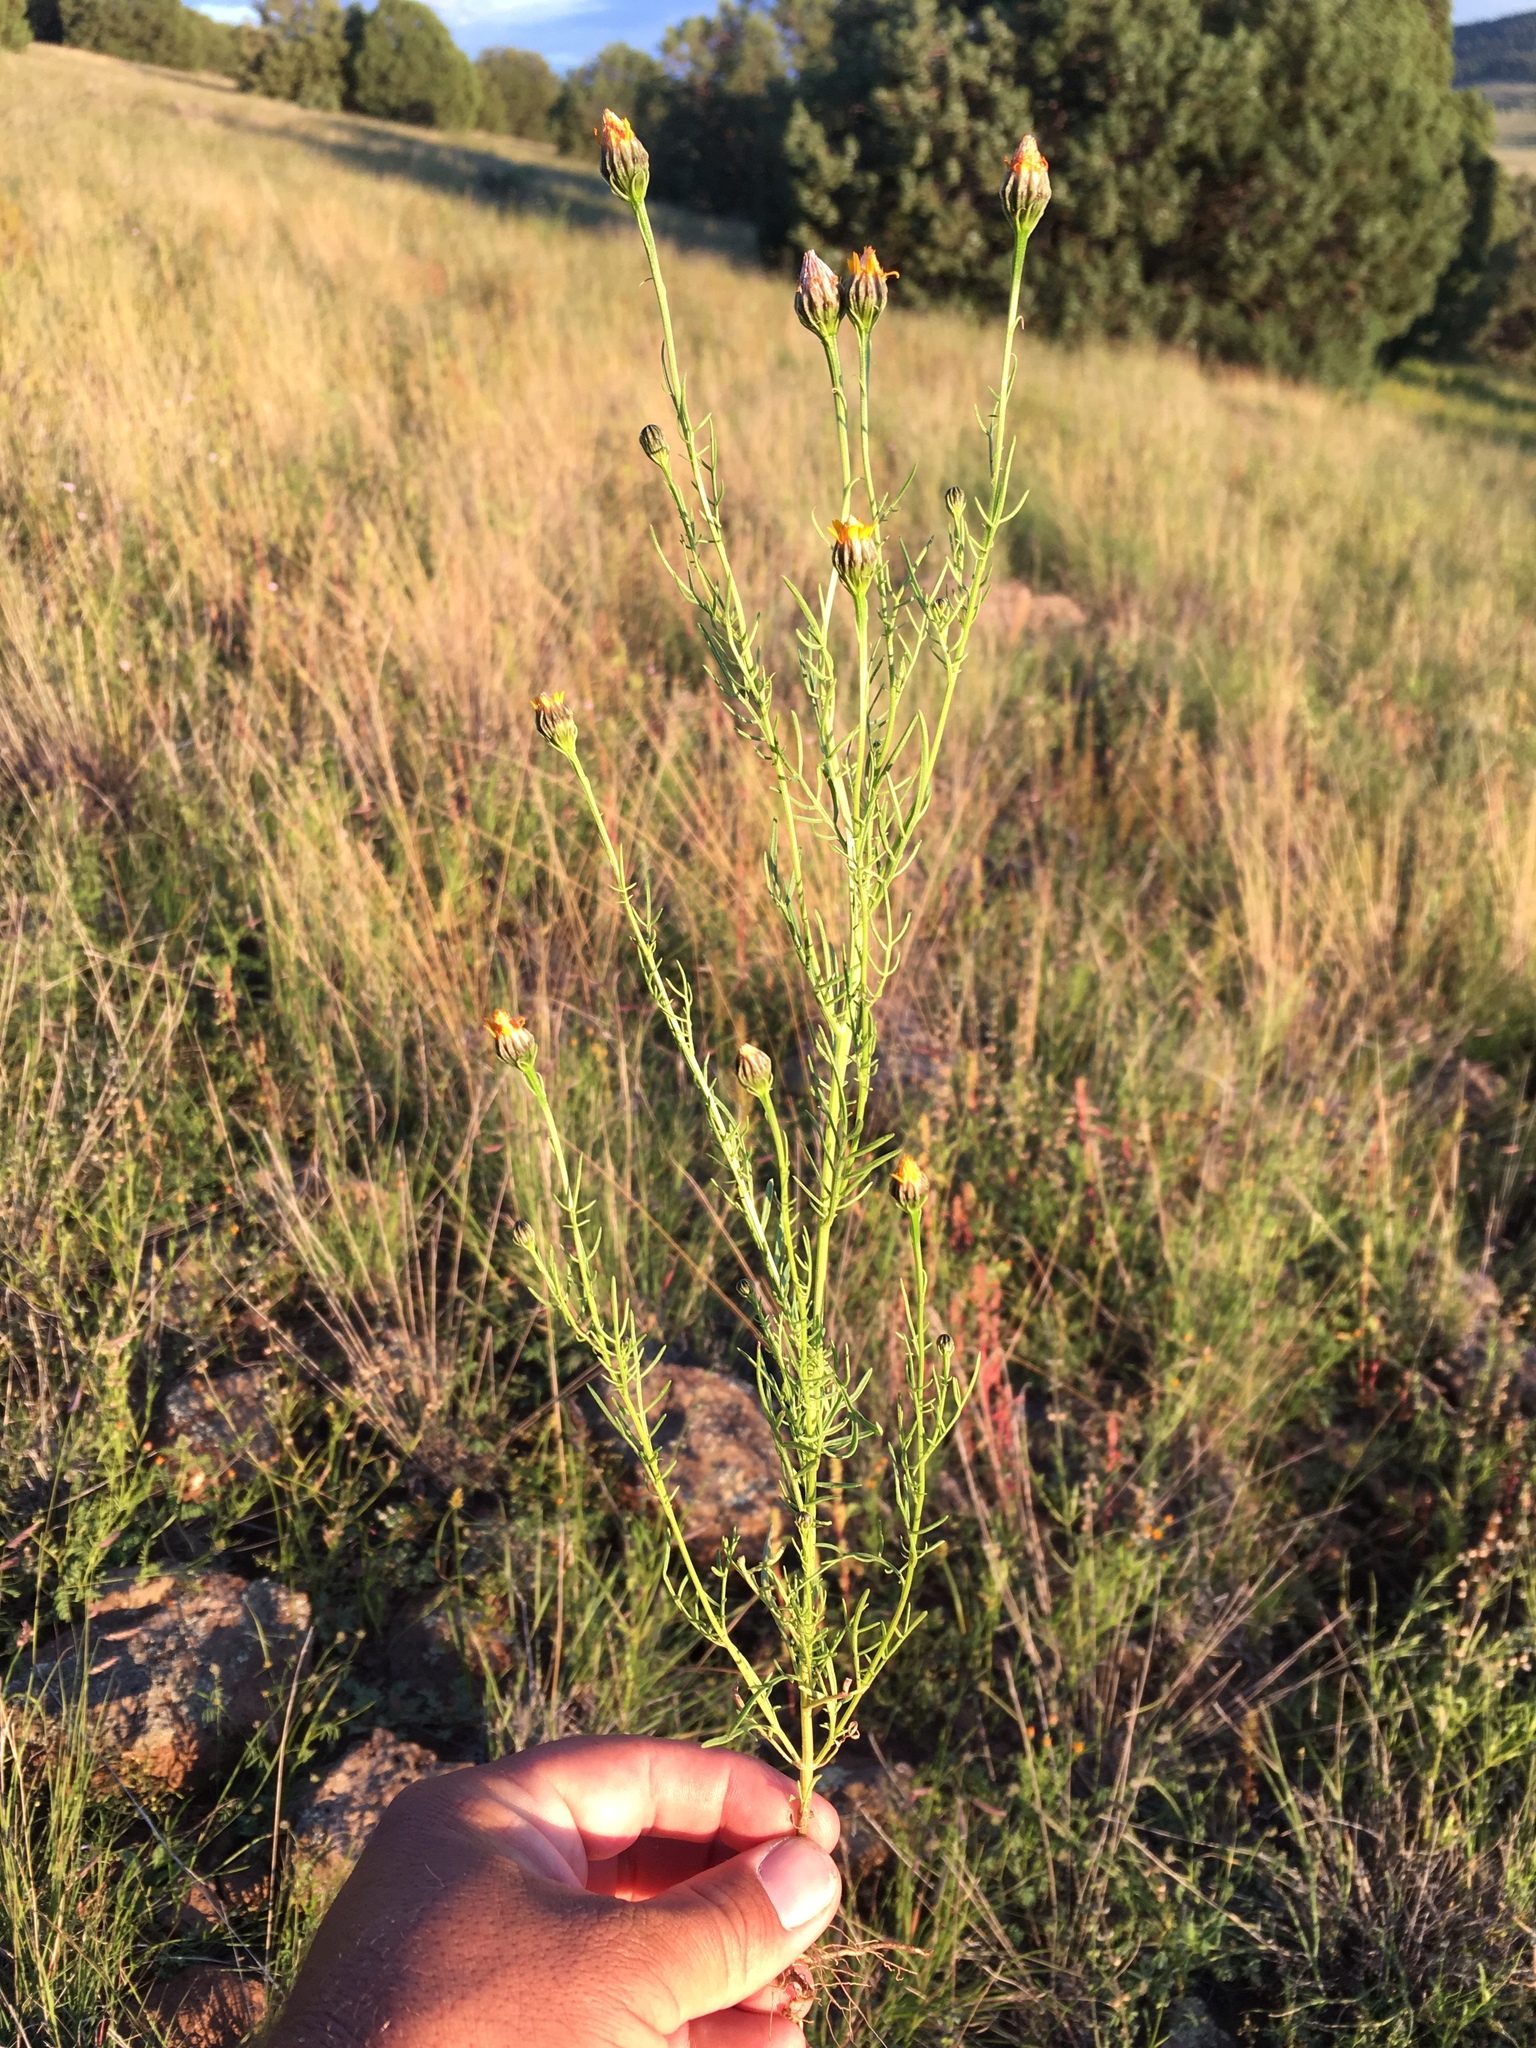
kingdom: Plantae
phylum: Tracheophyta
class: Magnoliopsida
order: Asterales
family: Asteraceae
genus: Adenophyllum
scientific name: Adenophyllum wrightii
